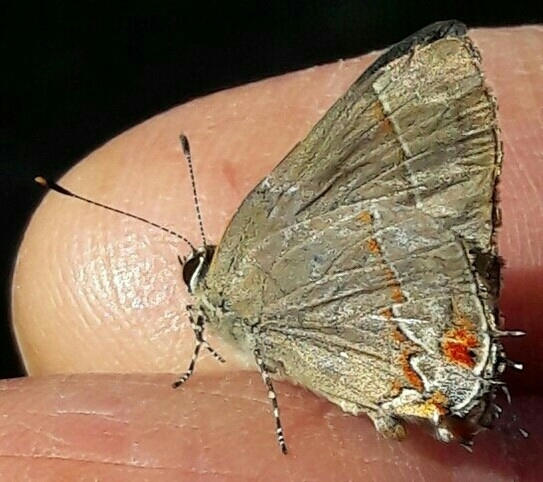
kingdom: Animalia
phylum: Arthropoda
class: Insecta
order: Lepidoptera
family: Lycaenidae
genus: Thecla
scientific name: Thecla syllis
